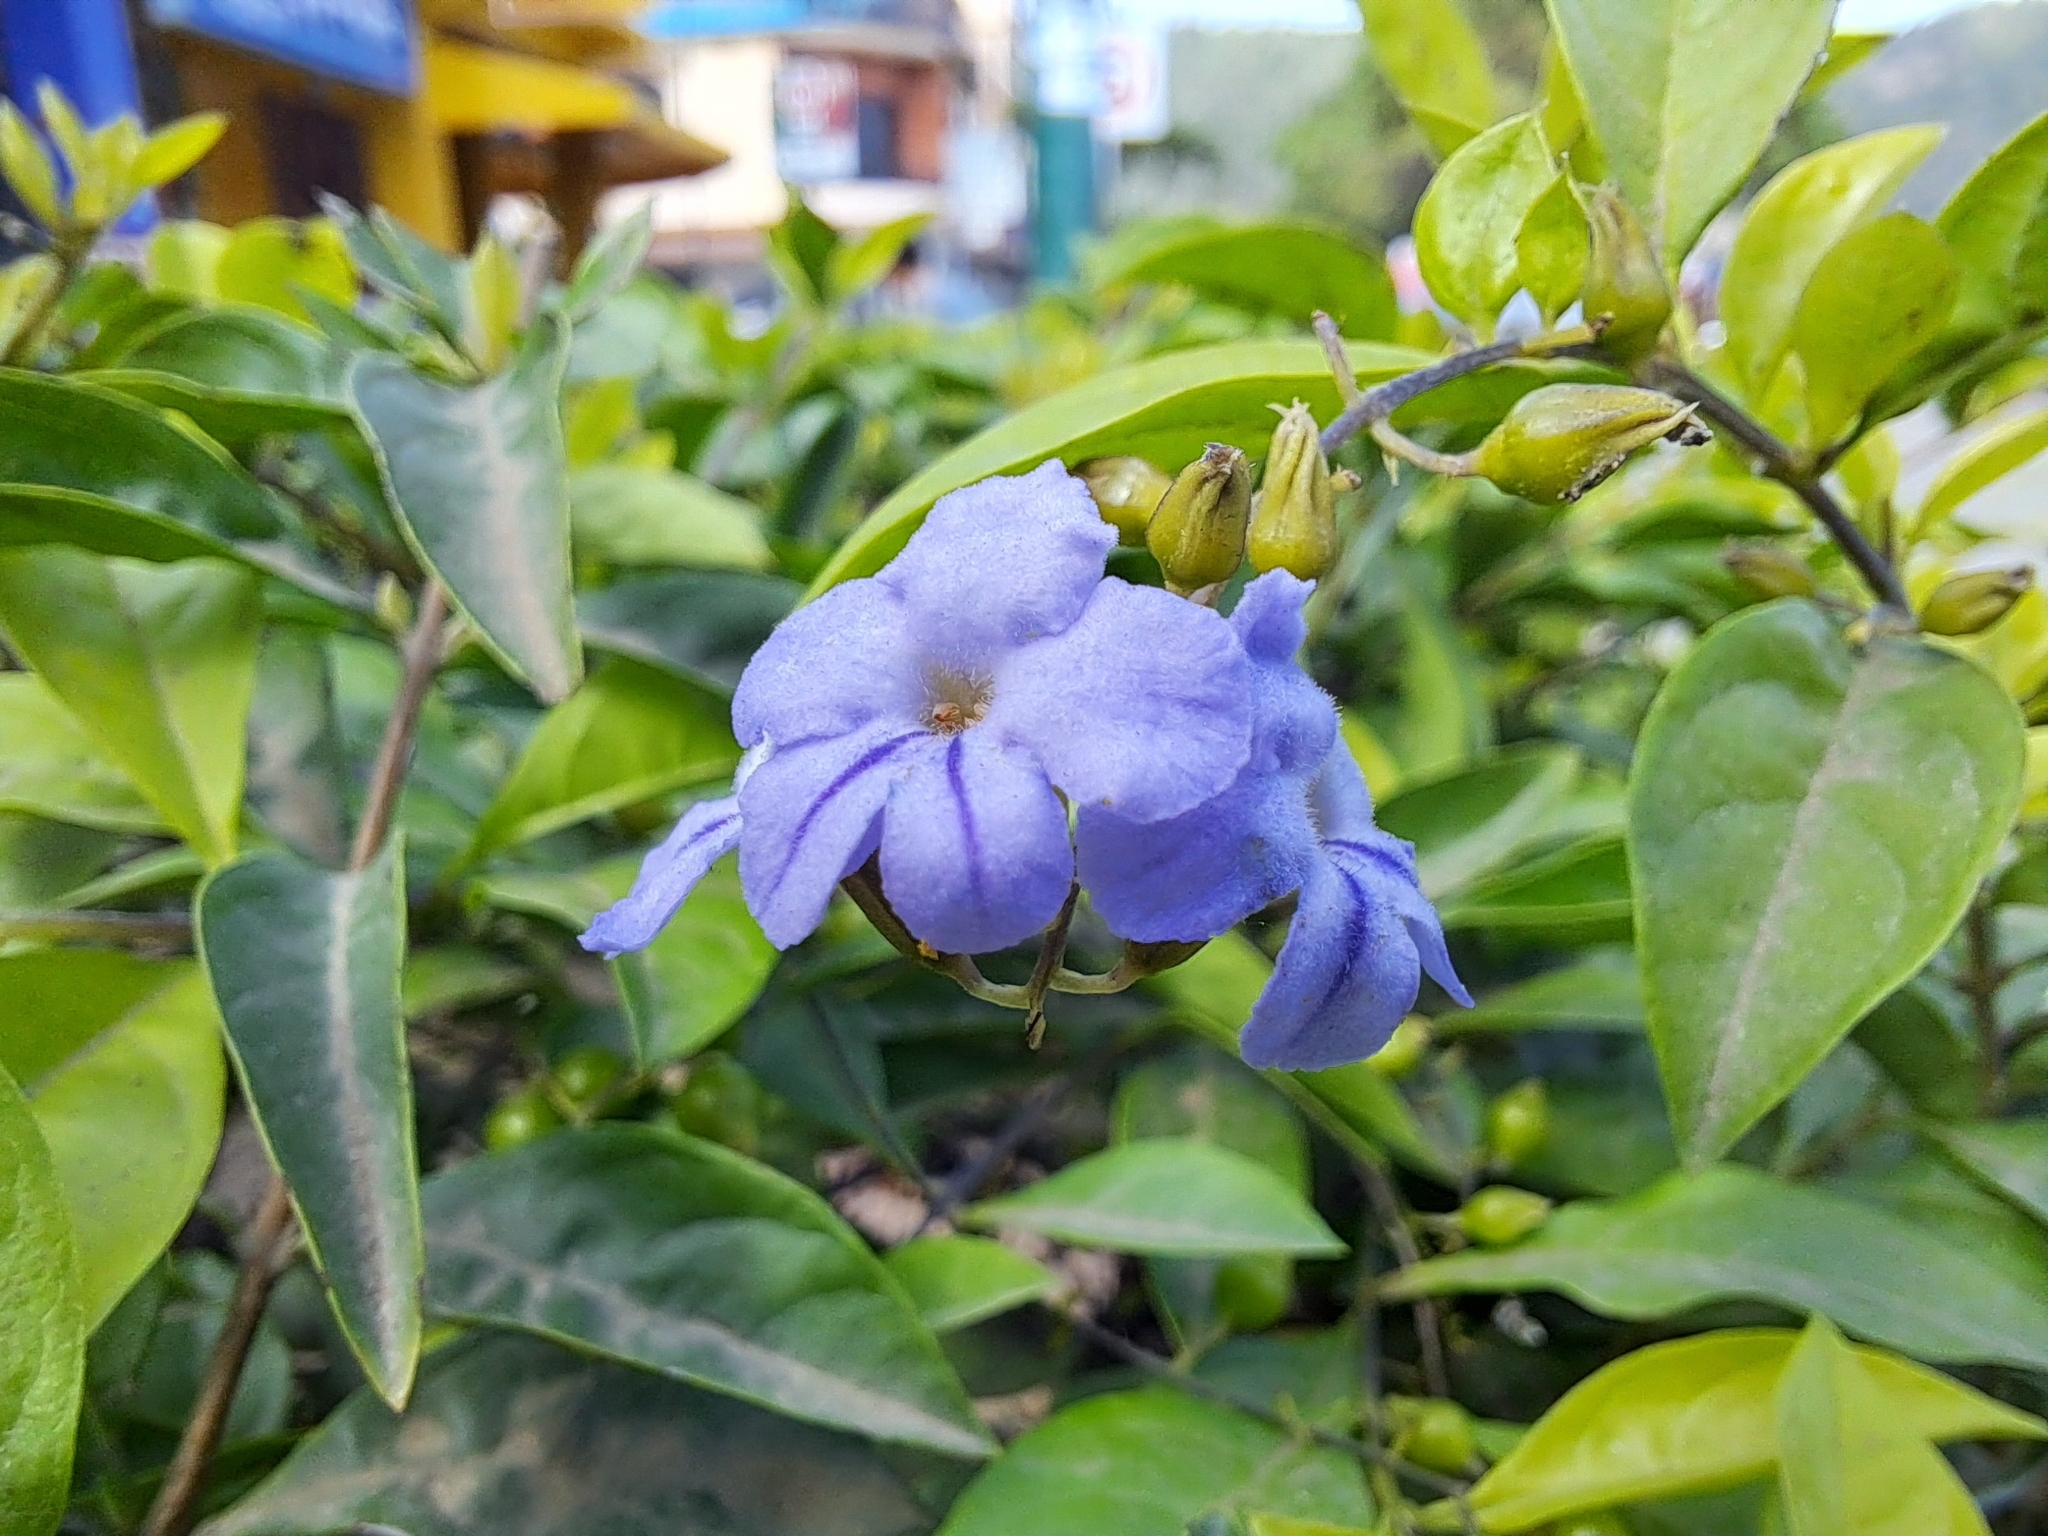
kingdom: Plantae
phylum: Tracheophyta
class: Magnoliopsida
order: Lamiales
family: Verbenaceae
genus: Duranta
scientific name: Duranta erecta
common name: Golden dewdrops
